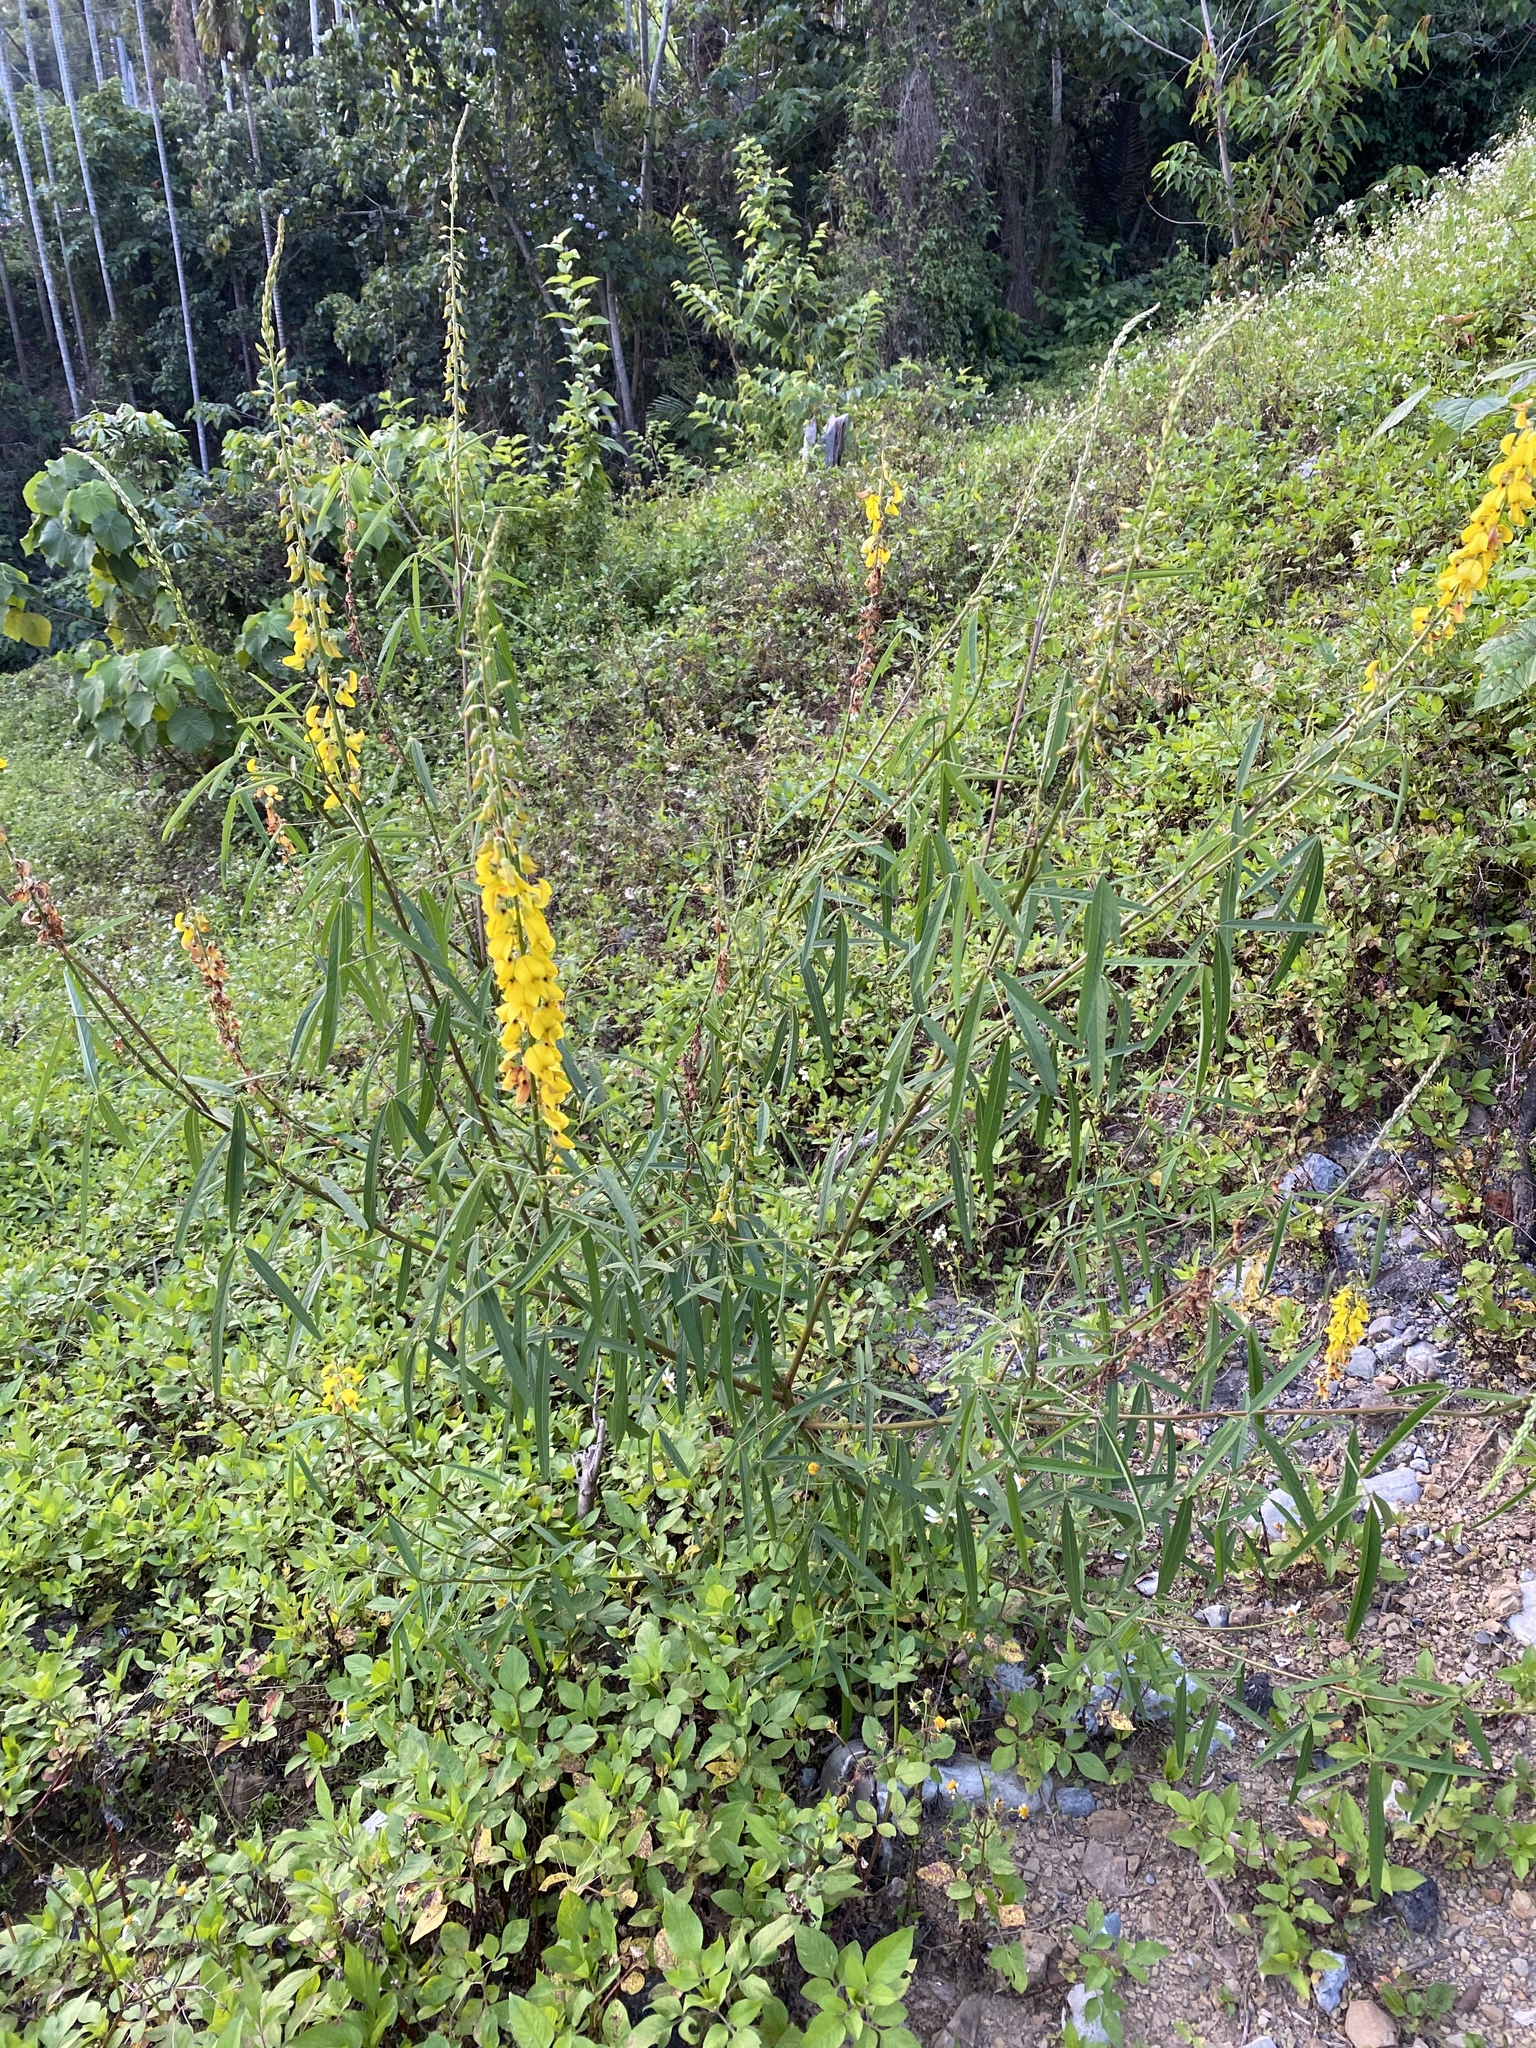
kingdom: Plantae
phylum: Tracheophyta
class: Magnoliopsida
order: Fabales
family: Fabaceae
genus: Crotalaria
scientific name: Crotalaria pallida
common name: Smooth rattlebox
